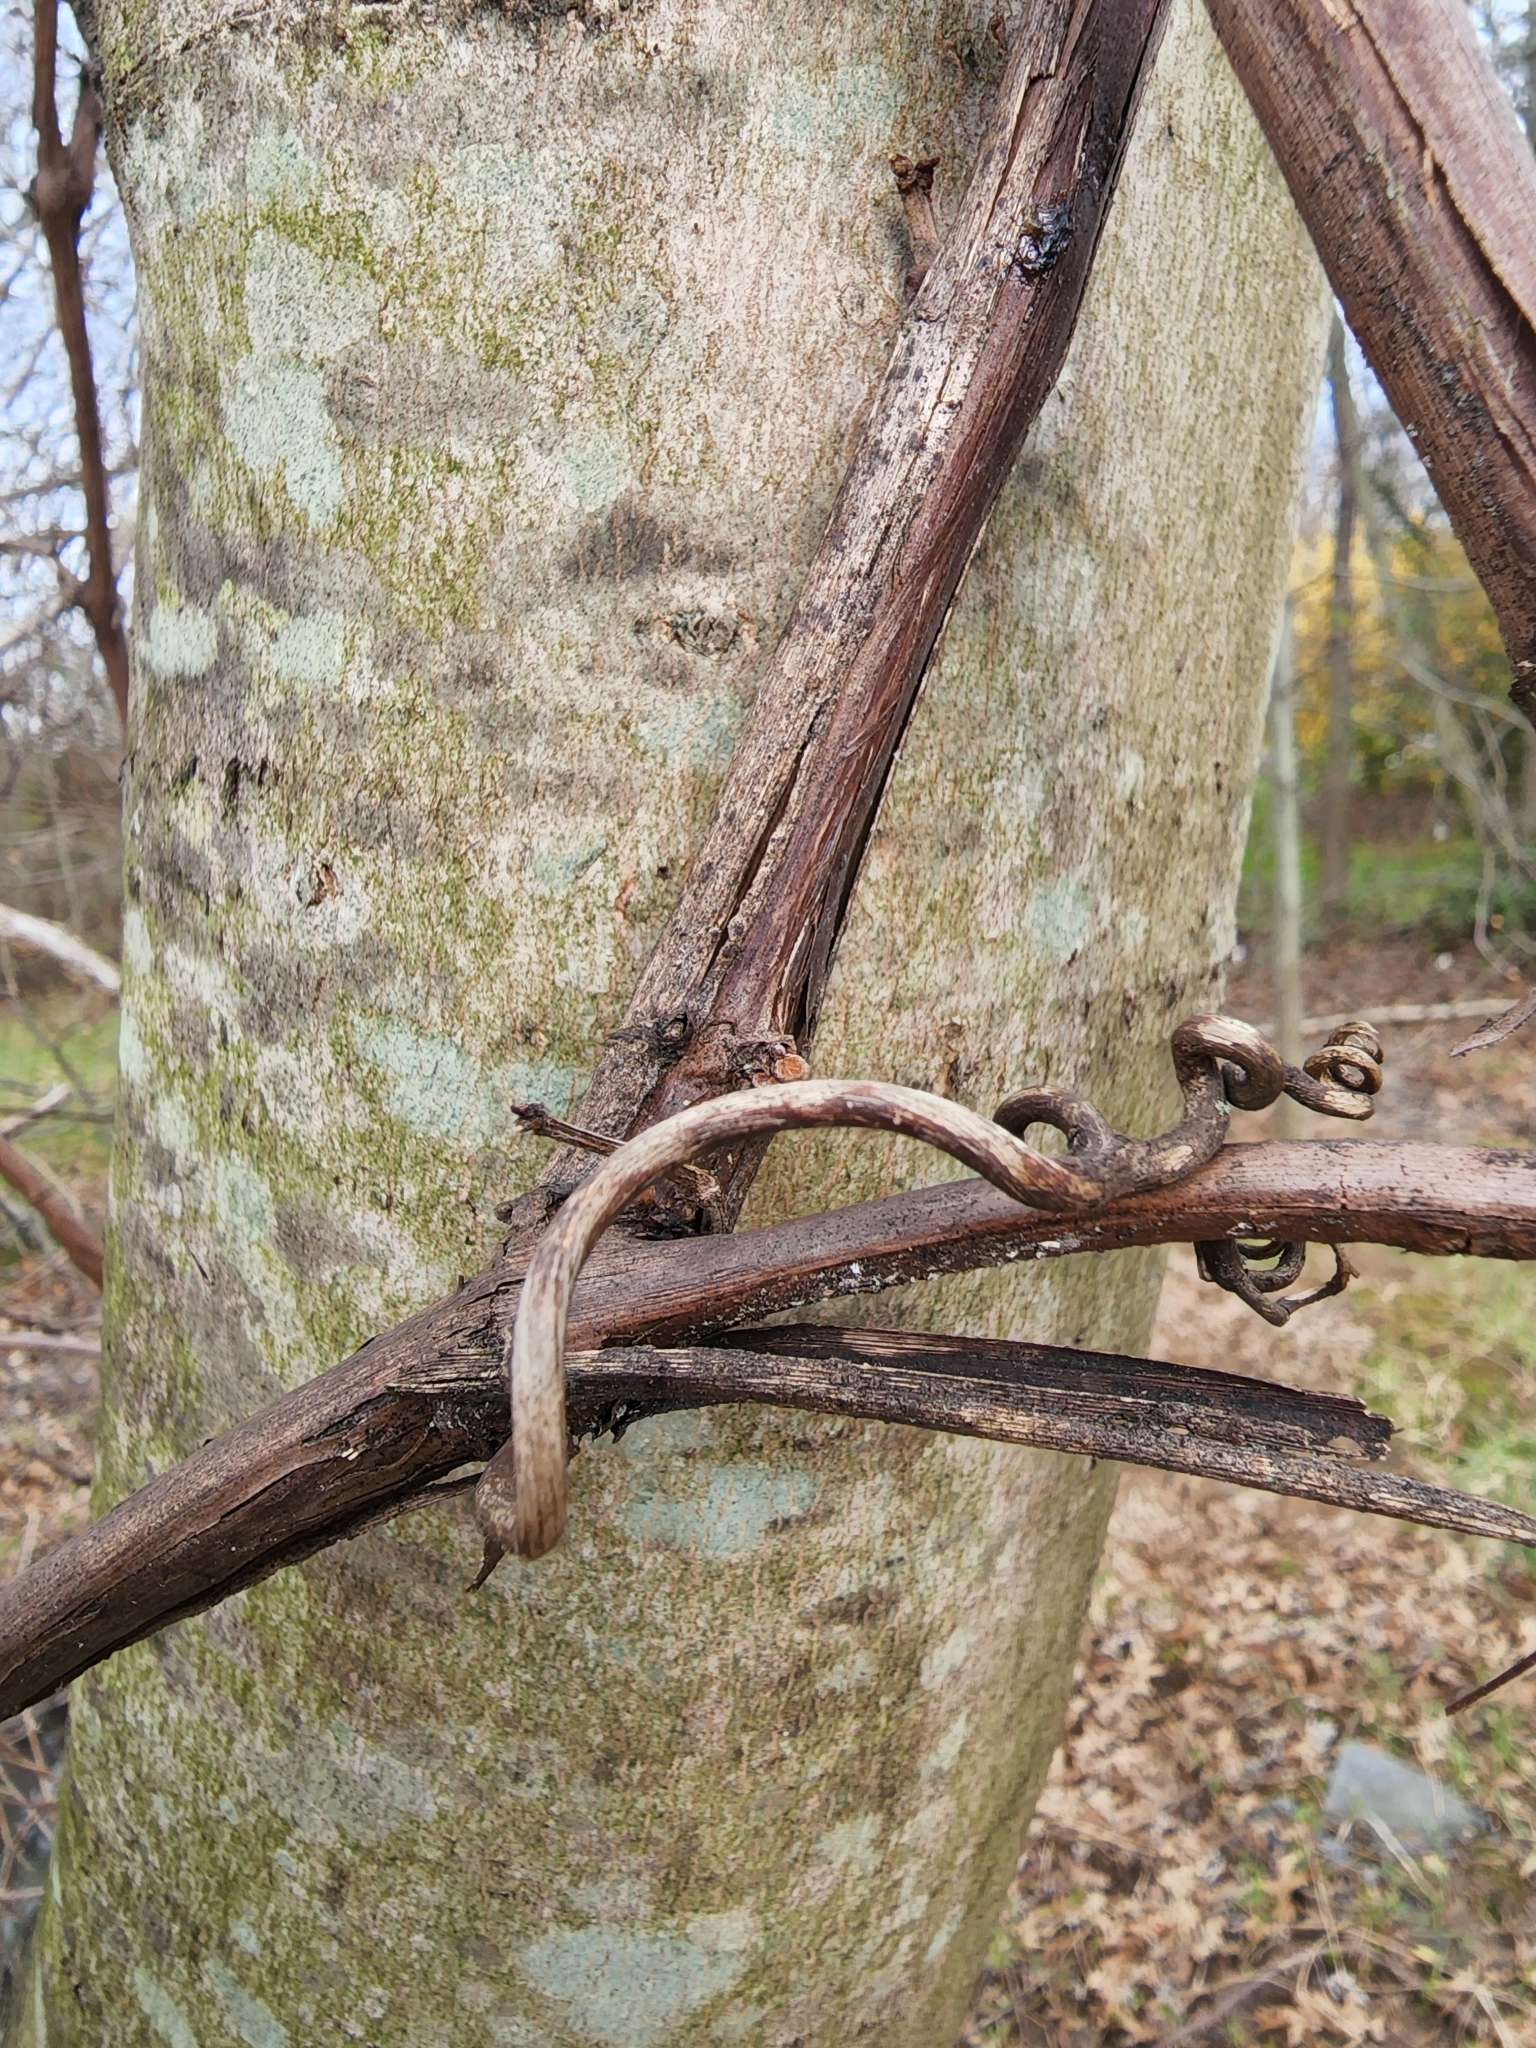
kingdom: Plantae
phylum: Tracheophyta
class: Magnoliopsida
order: Vitales
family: Vitaceae
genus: Vitis
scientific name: Vitis
